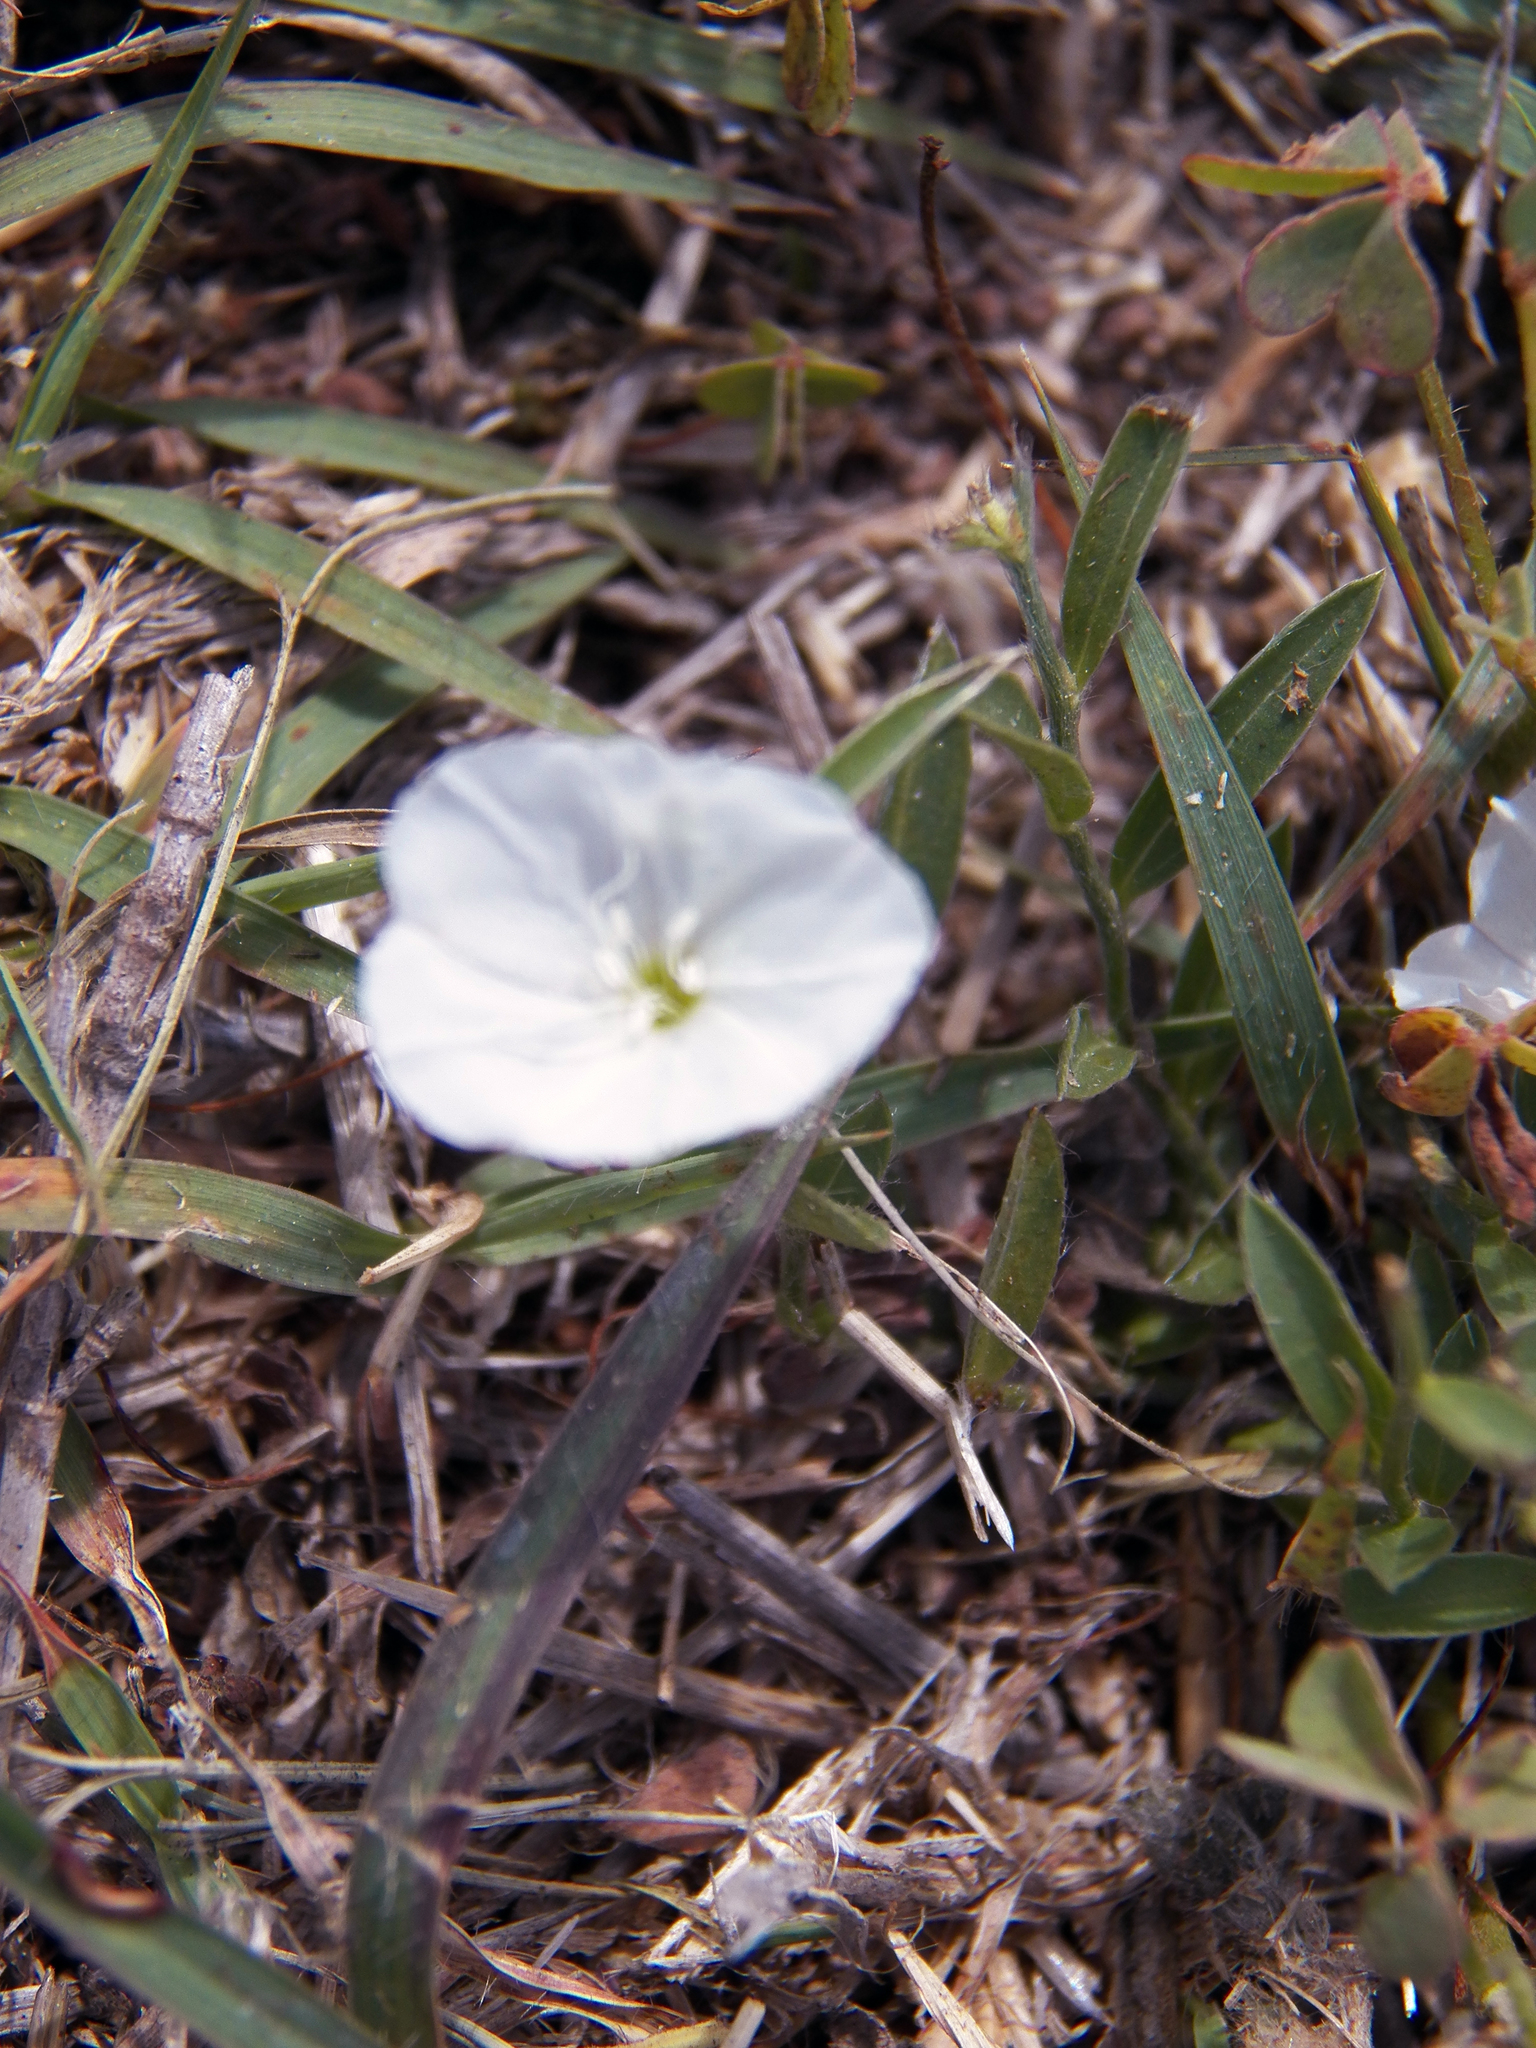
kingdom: Plantae
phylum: Tracheophyta
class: Magnoliopsida
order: Solanales
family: Convolvulaceae
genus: Evolvulus
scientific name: Evolvulus sericeus
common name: Blue dots
